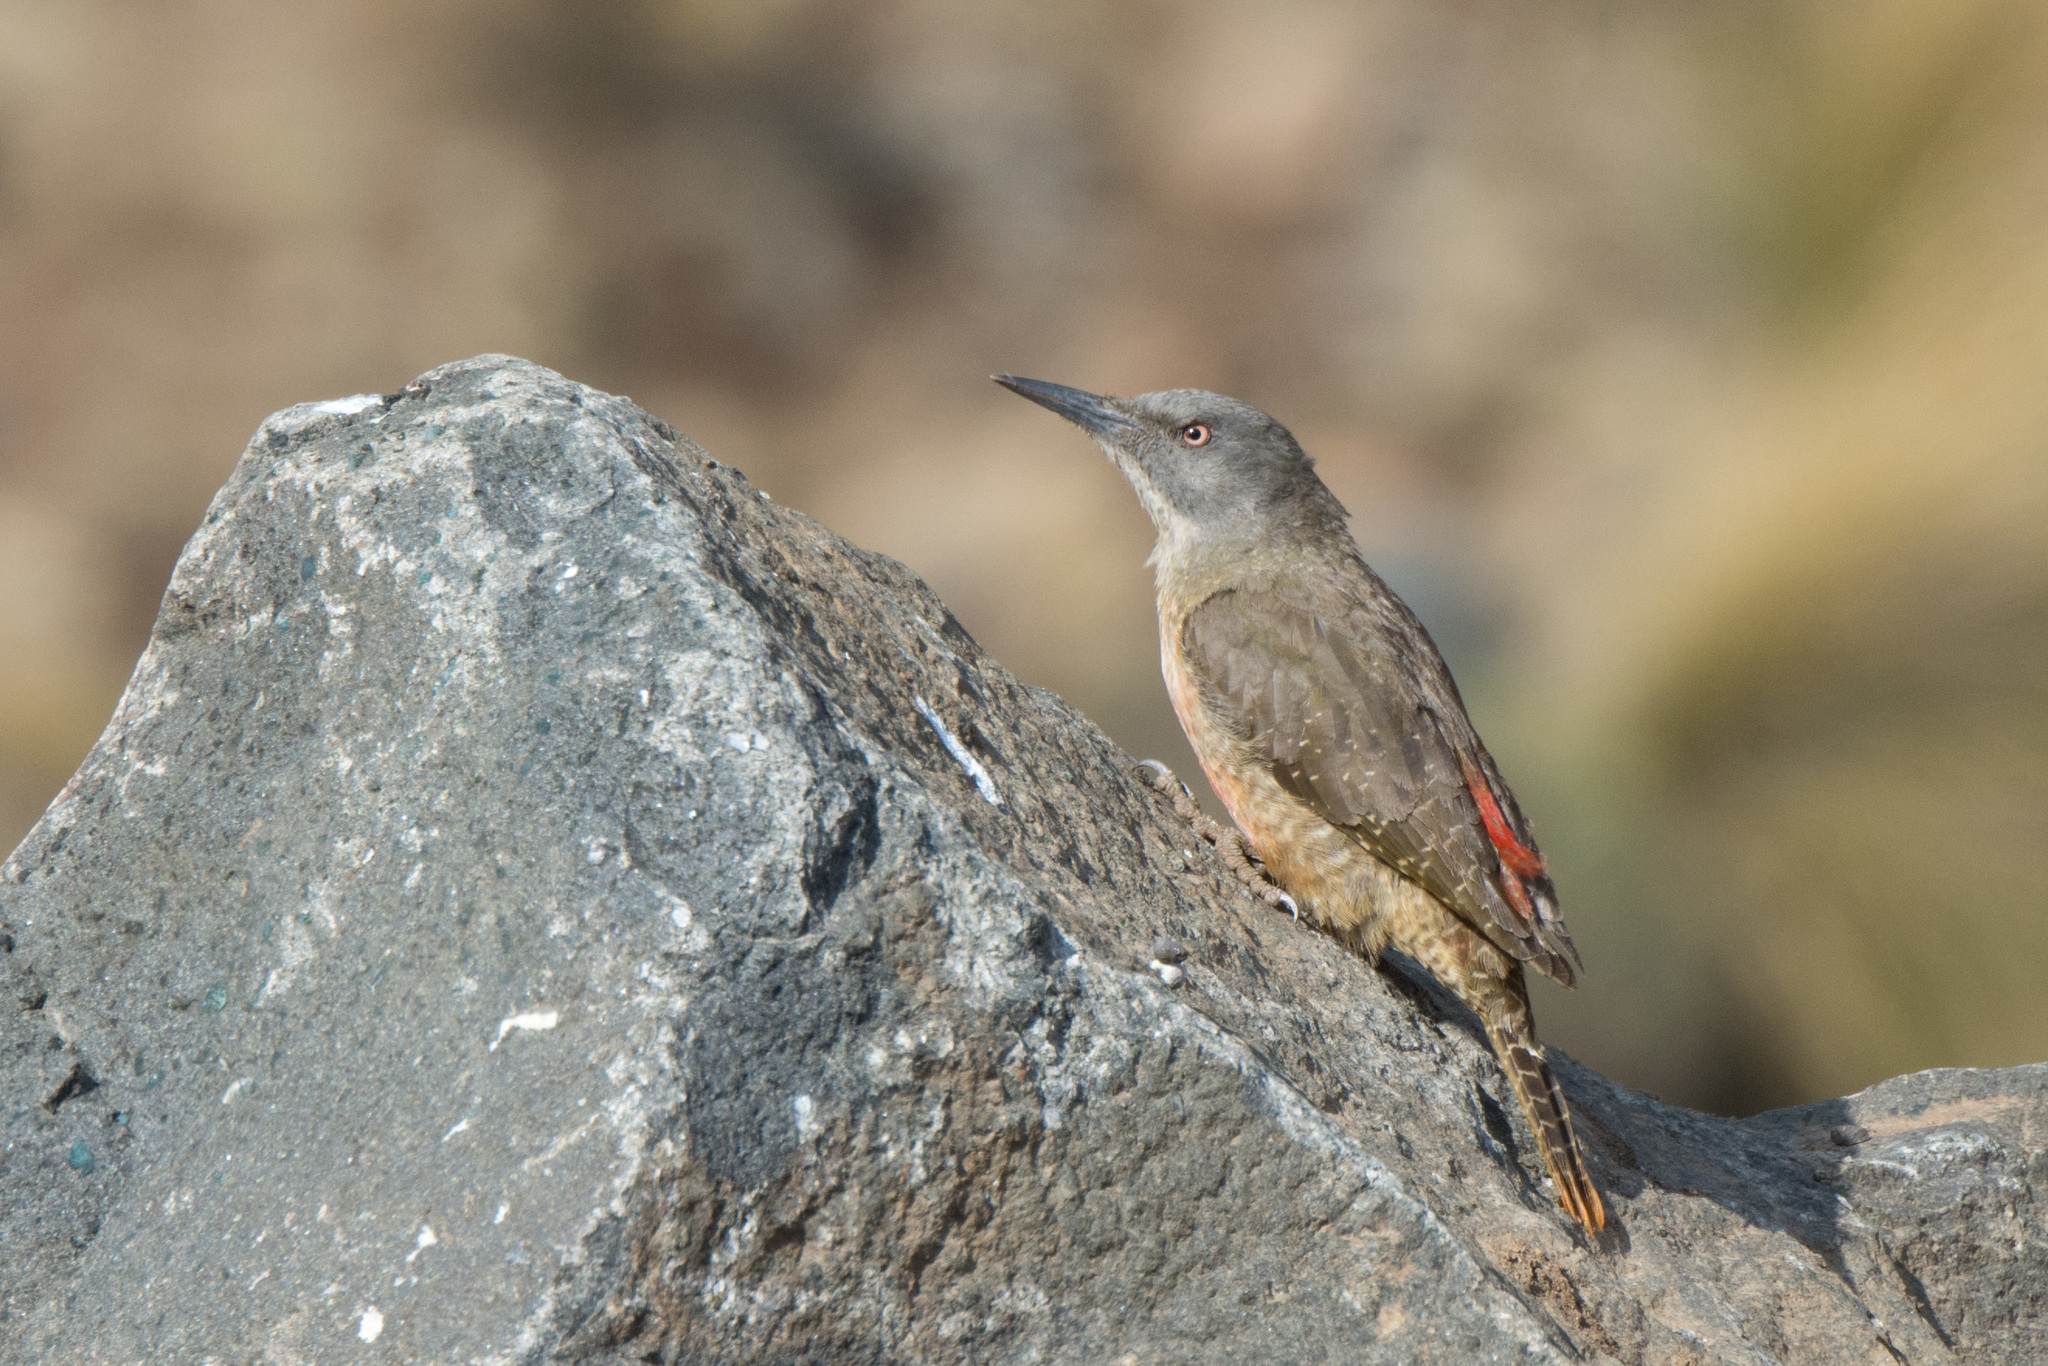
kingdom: Animalia
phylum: Chordata
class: Aves
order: Piciformes
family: Picidae
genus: Geocolaptes
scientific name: Geocolaptes olivaceus
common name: Ground woodpecker
